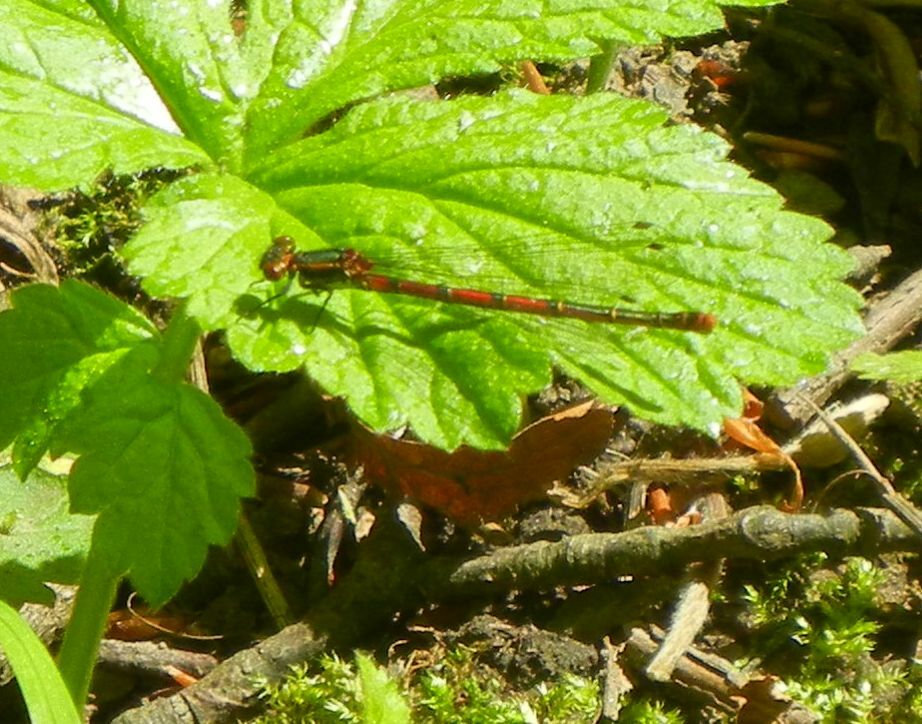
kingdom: Animalia
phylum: Arthropoda
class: Insecta
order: Odonata
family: Coenagrionidae
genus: Pyrrhosoma
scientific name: Pyrrhosoma nymphula
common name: Large red damsel
